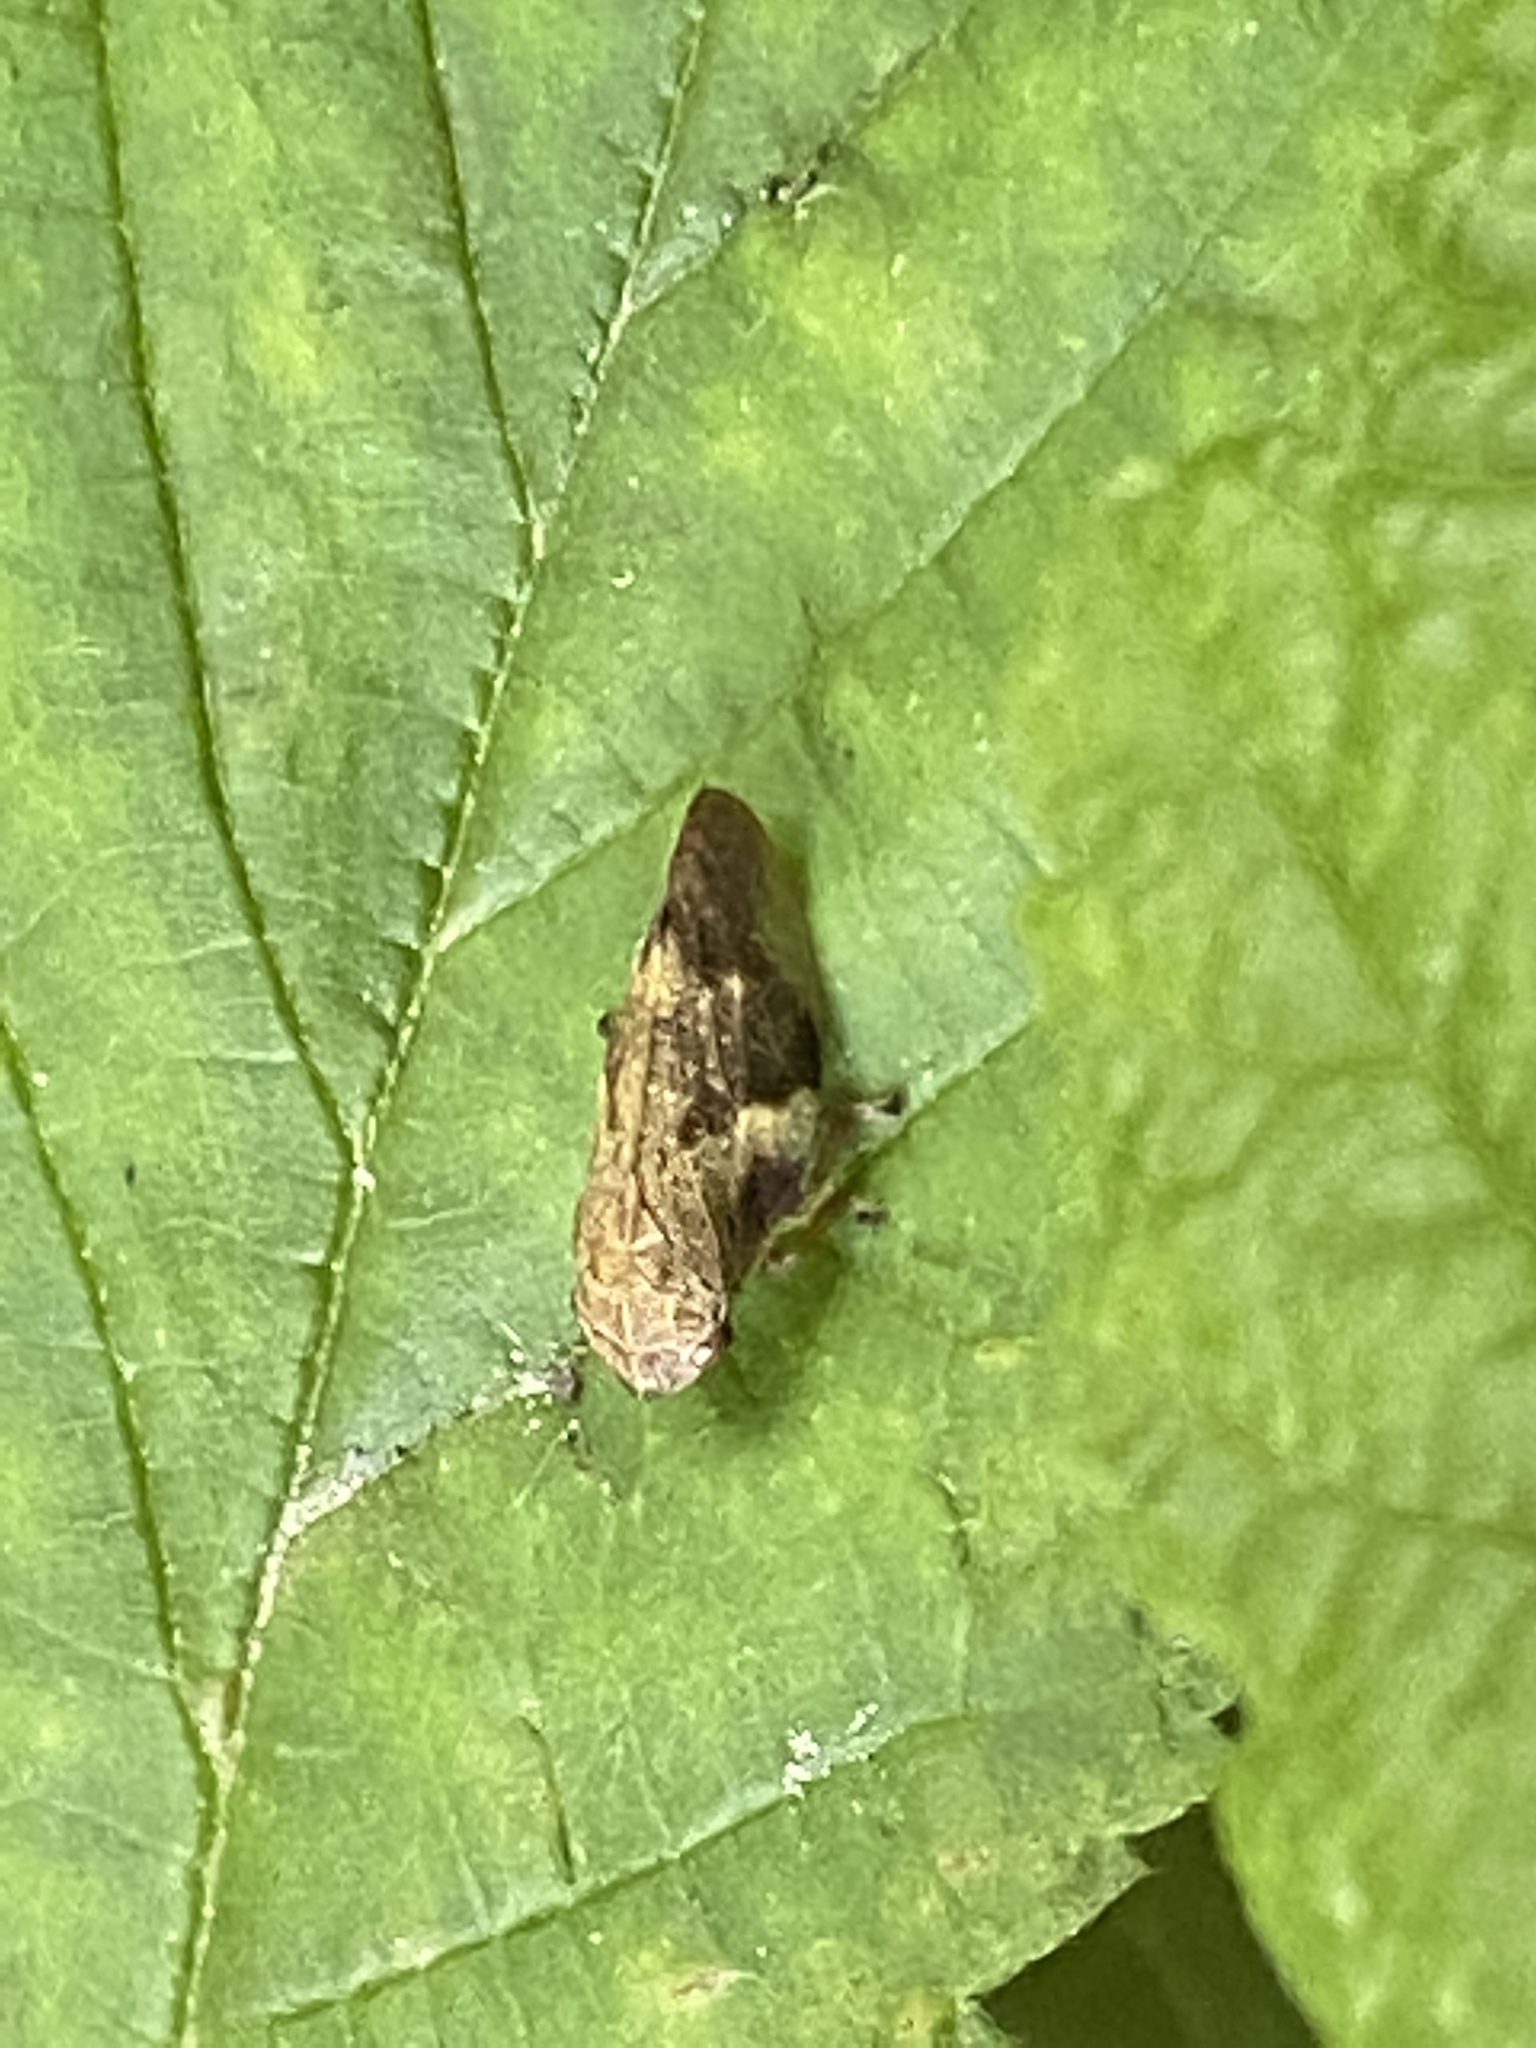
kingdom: Animalia
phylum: Arthropoda
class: Insecta
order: Hemiptera
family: Aphrophoridae
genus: Aphrophora
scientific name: Aphrophora alni
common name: European alder spittlebug
